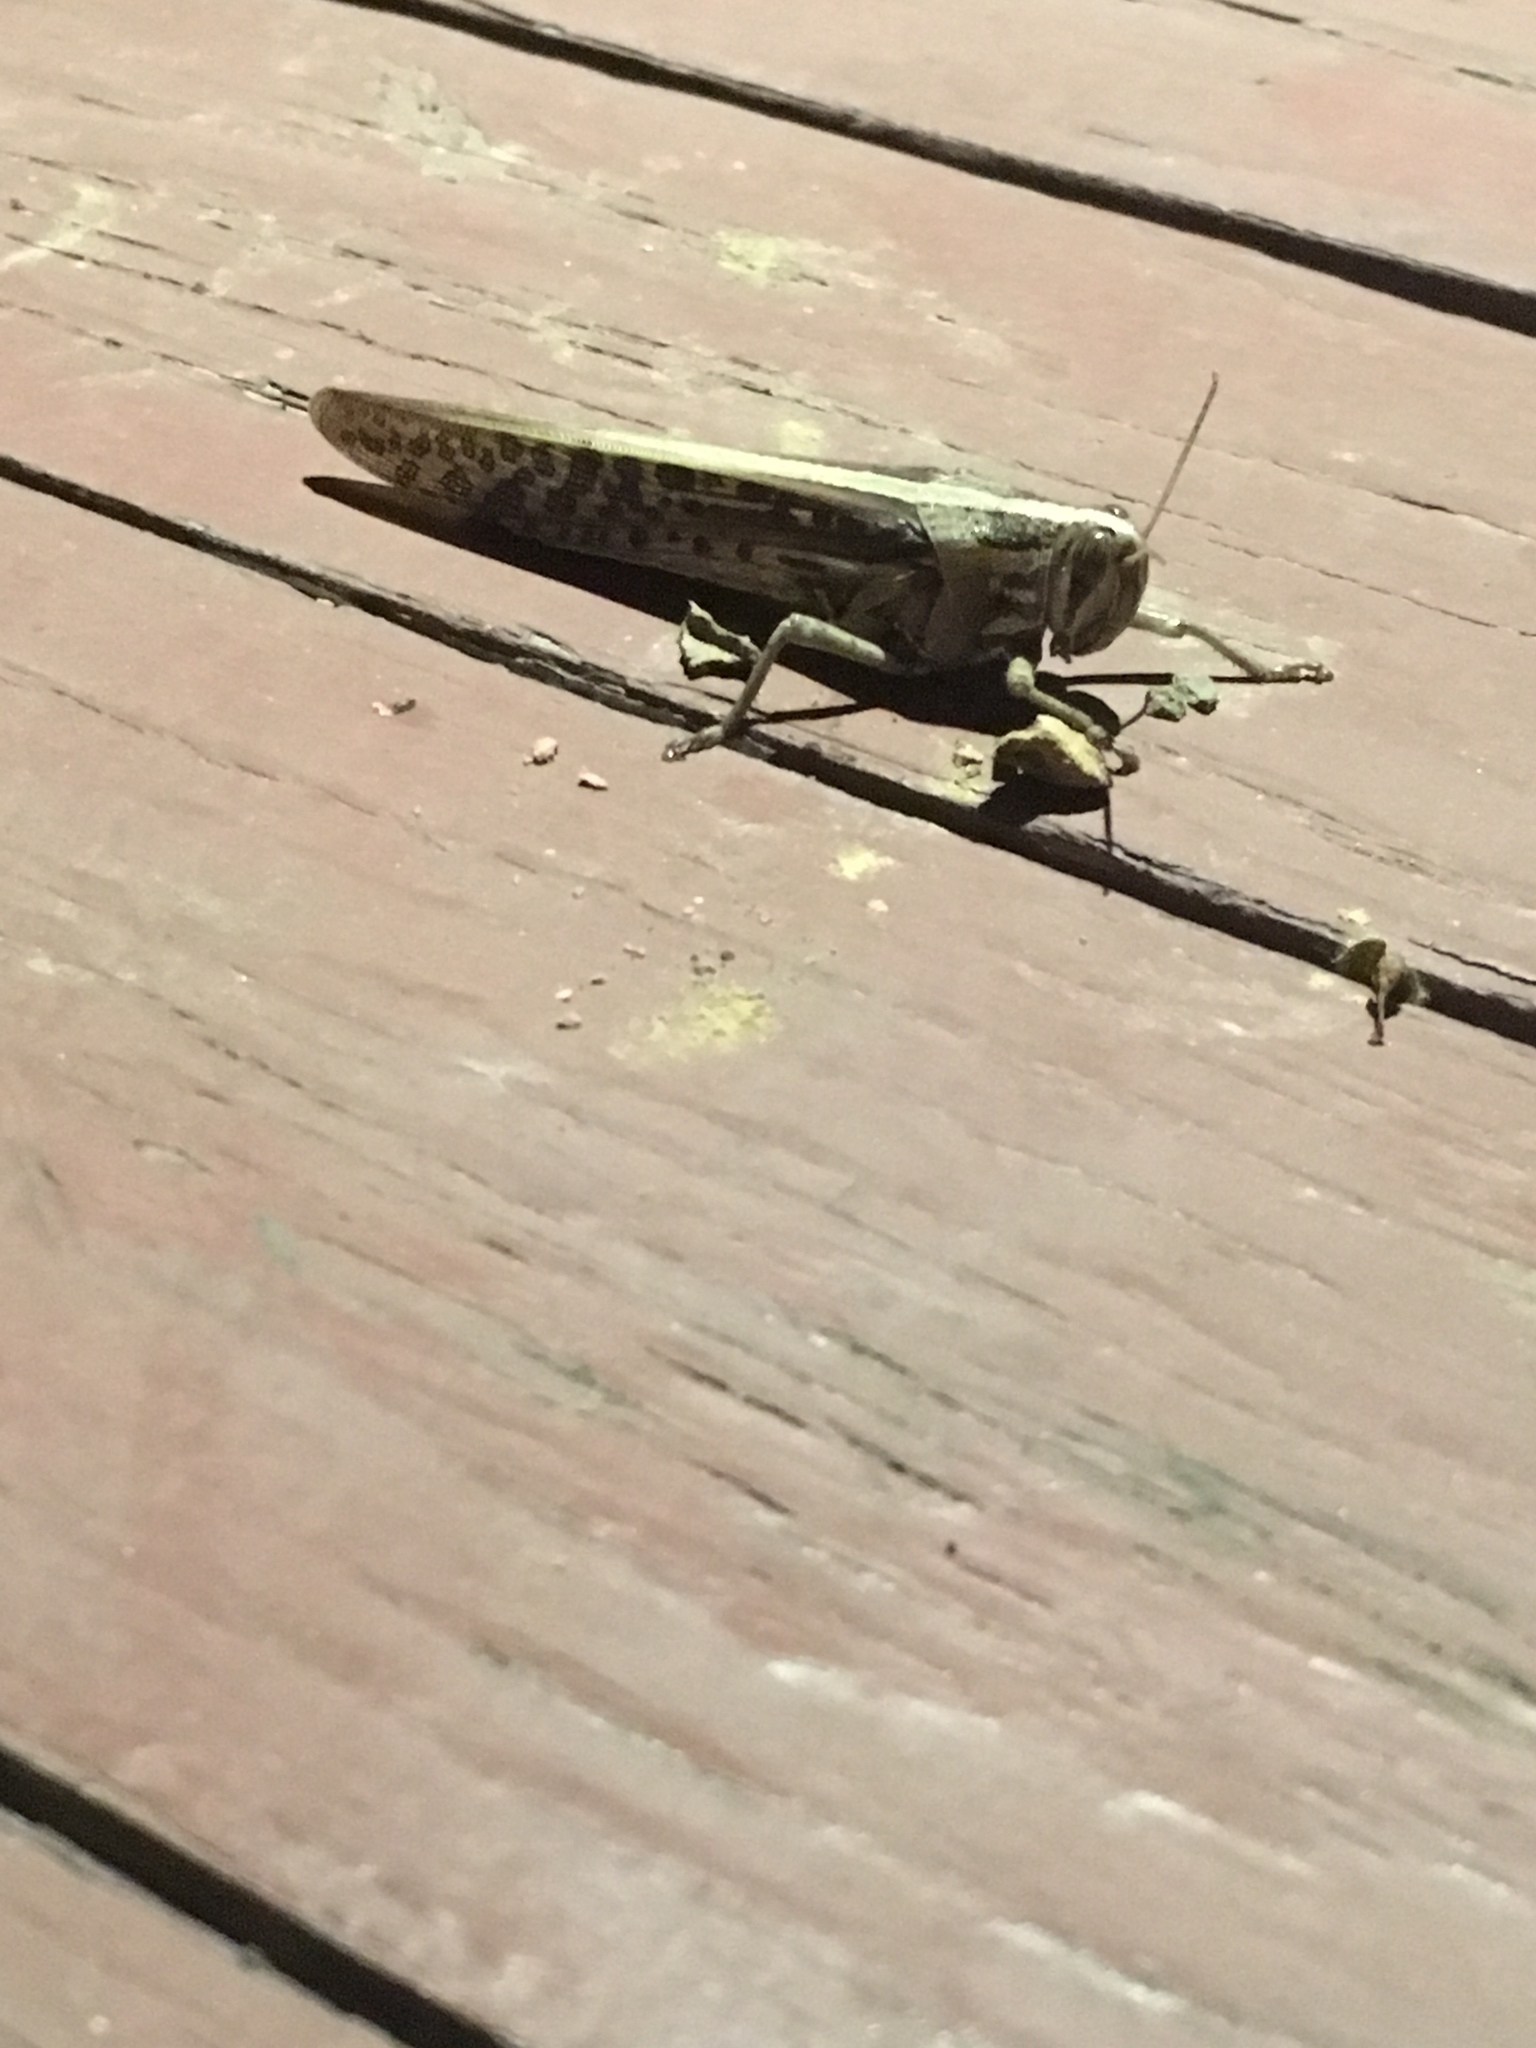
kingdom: Animalia
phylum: Arthropoda
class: Insecta
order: Orthoptera
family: Acrididae
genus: Schistocerca
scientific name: Schistocerca americana
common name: American bird locust
